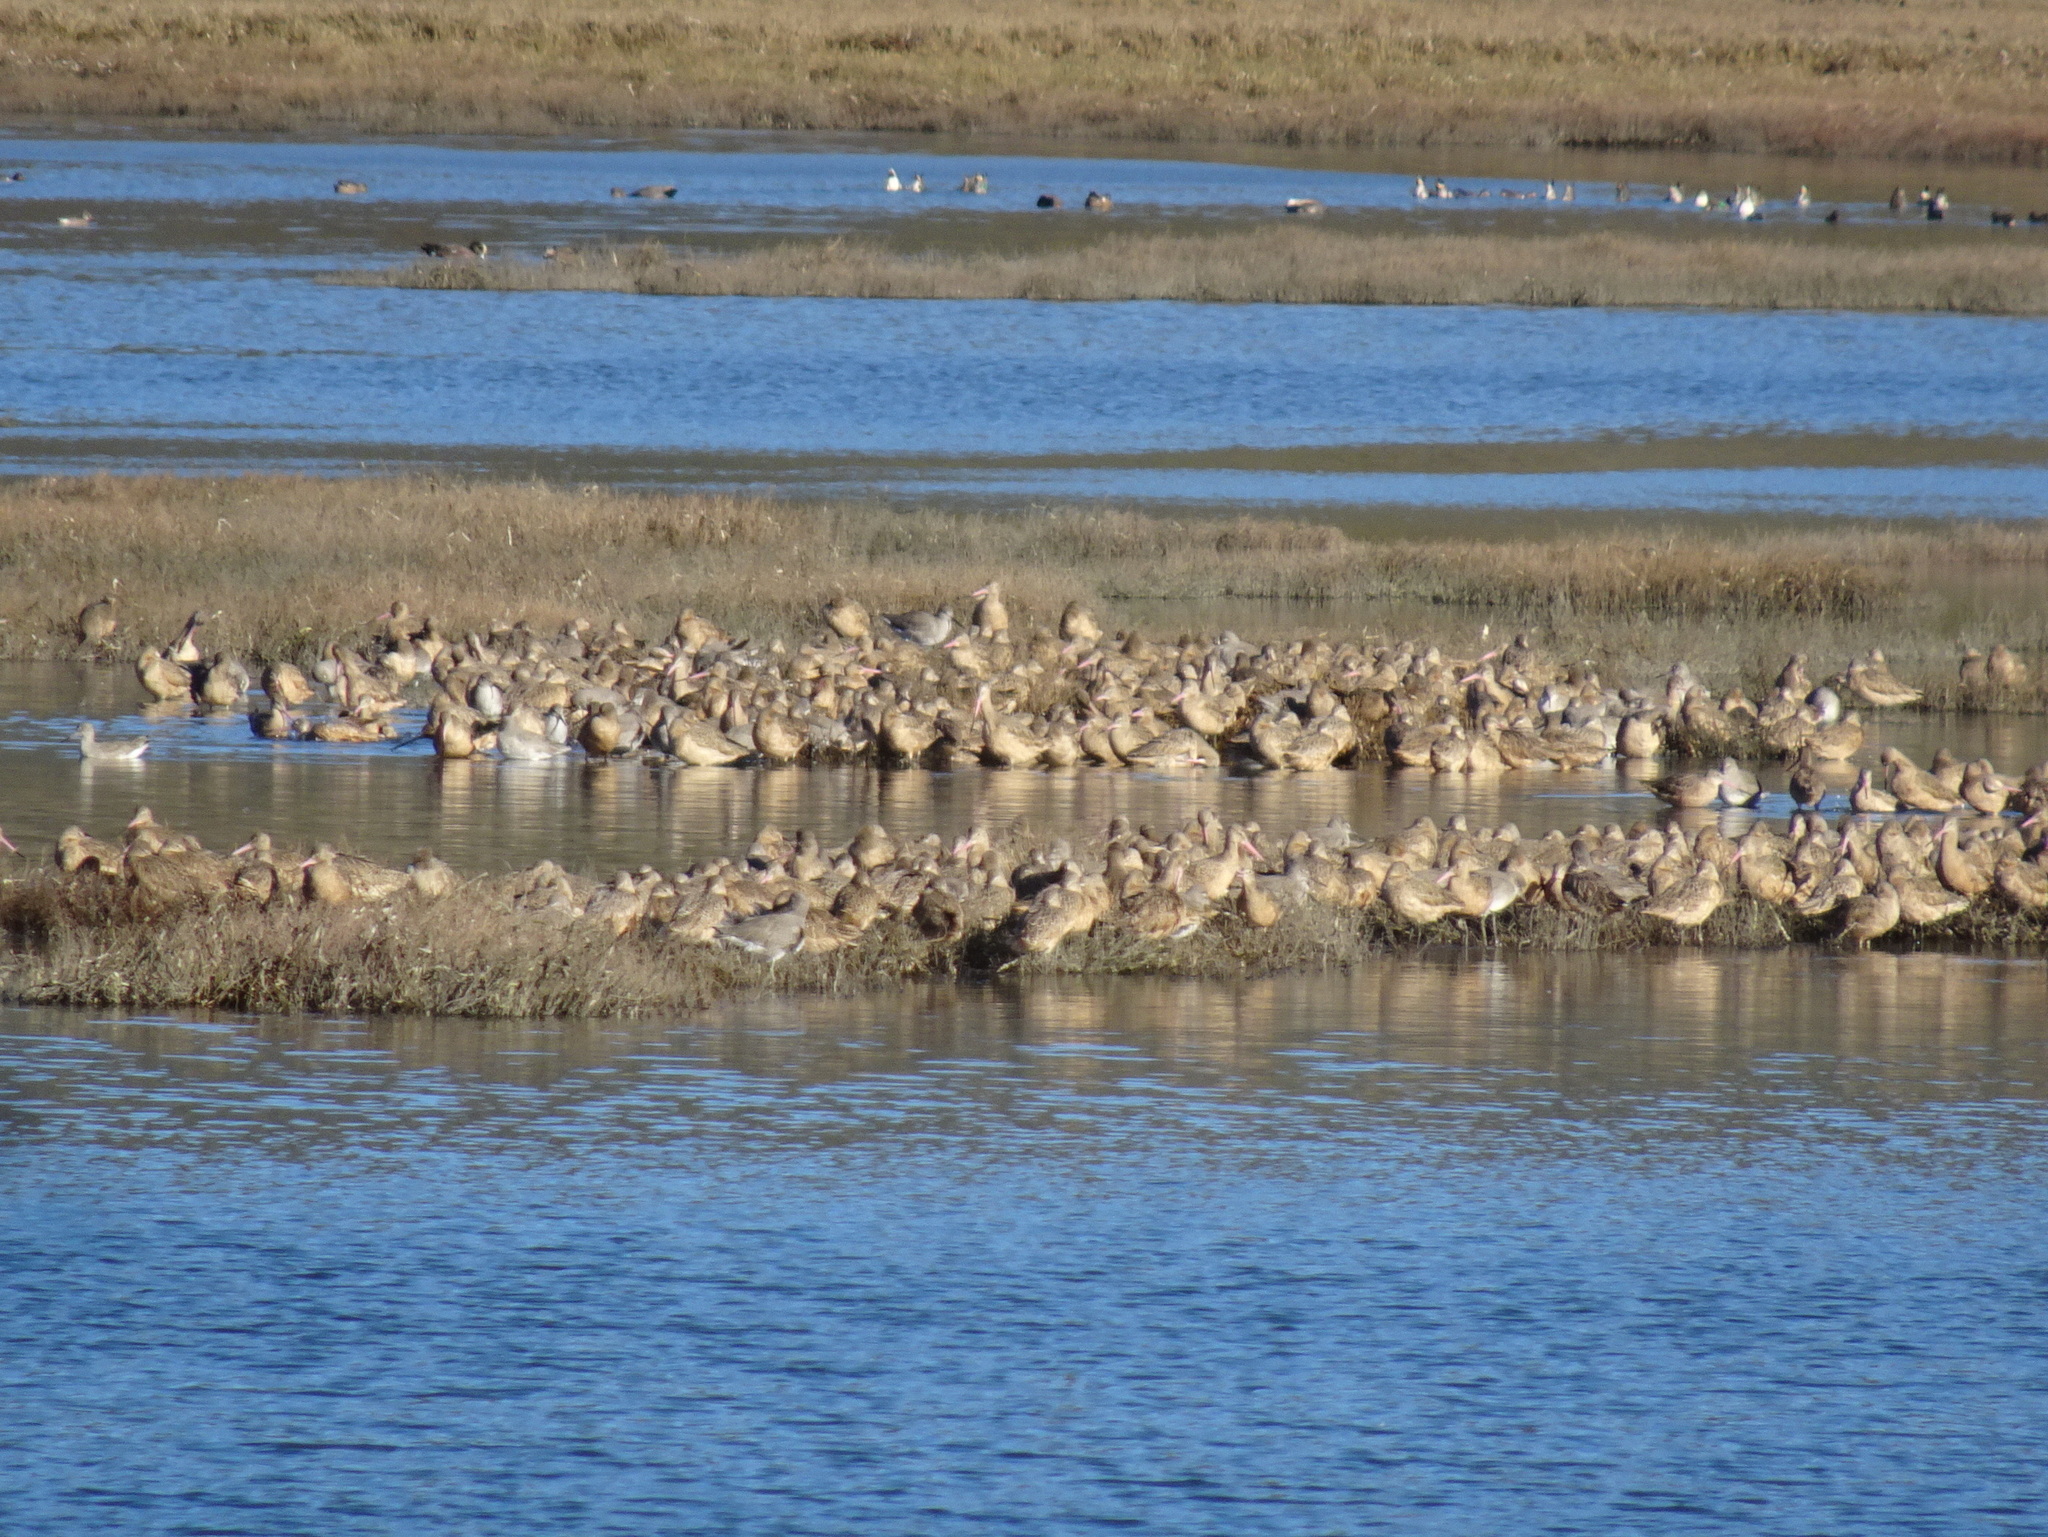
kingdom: Animalia
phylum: Chordata
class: Aves
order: Charadriiformes
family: Scolopacidae
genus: Limosa
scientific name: Limosa fedoa
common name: Marbled godwit
